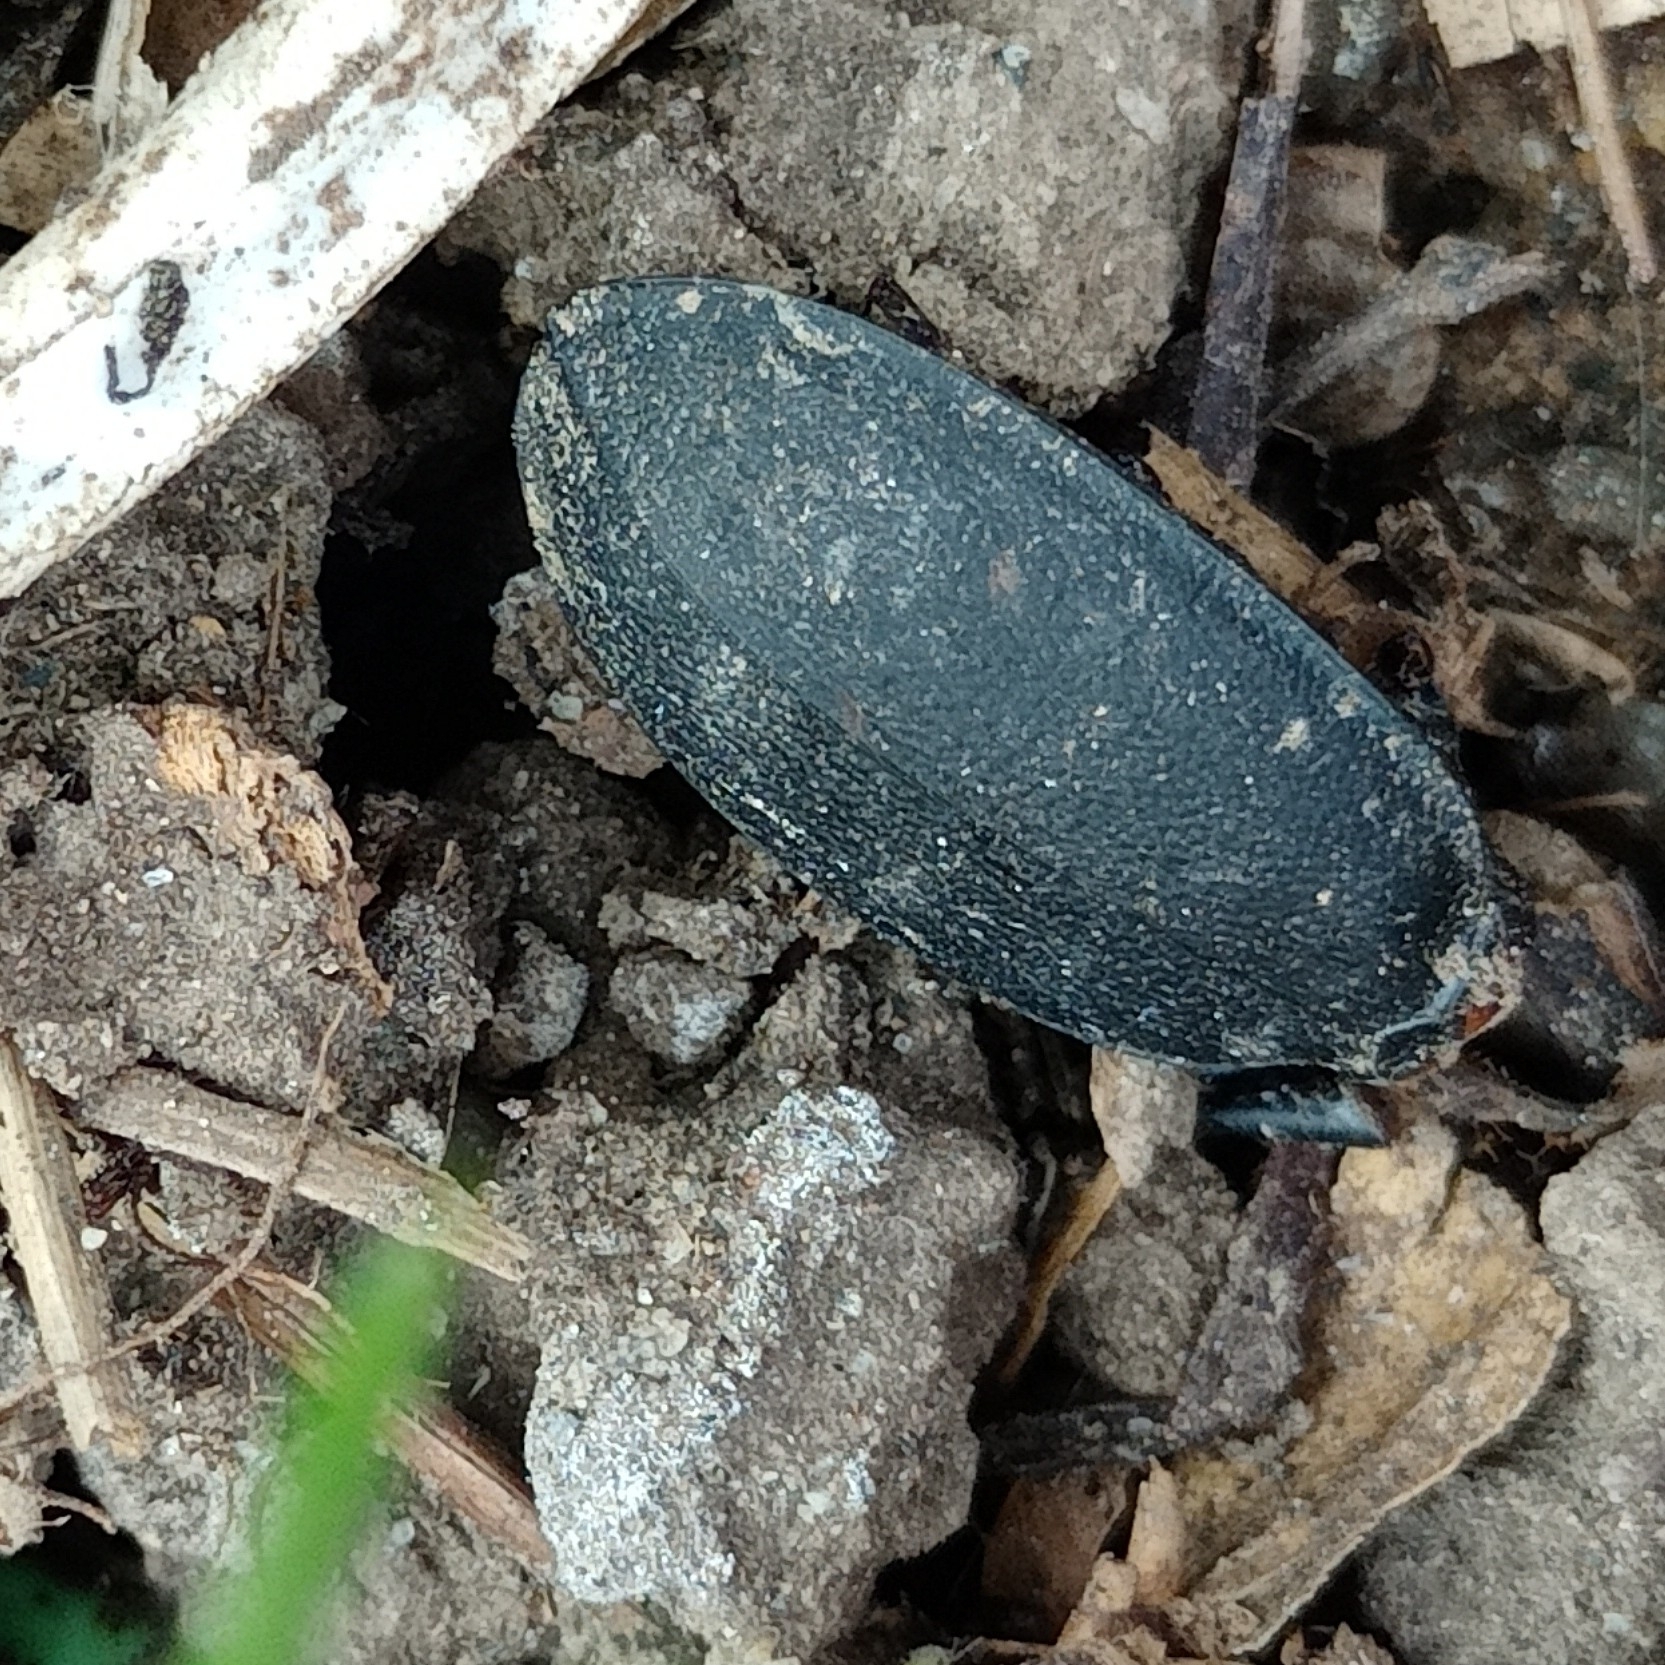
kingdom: Animalia
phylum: Arthropoda
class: Insecta
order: Coleoptera
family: Carabidae
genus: Carabus
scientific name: Carabus coriaceus
